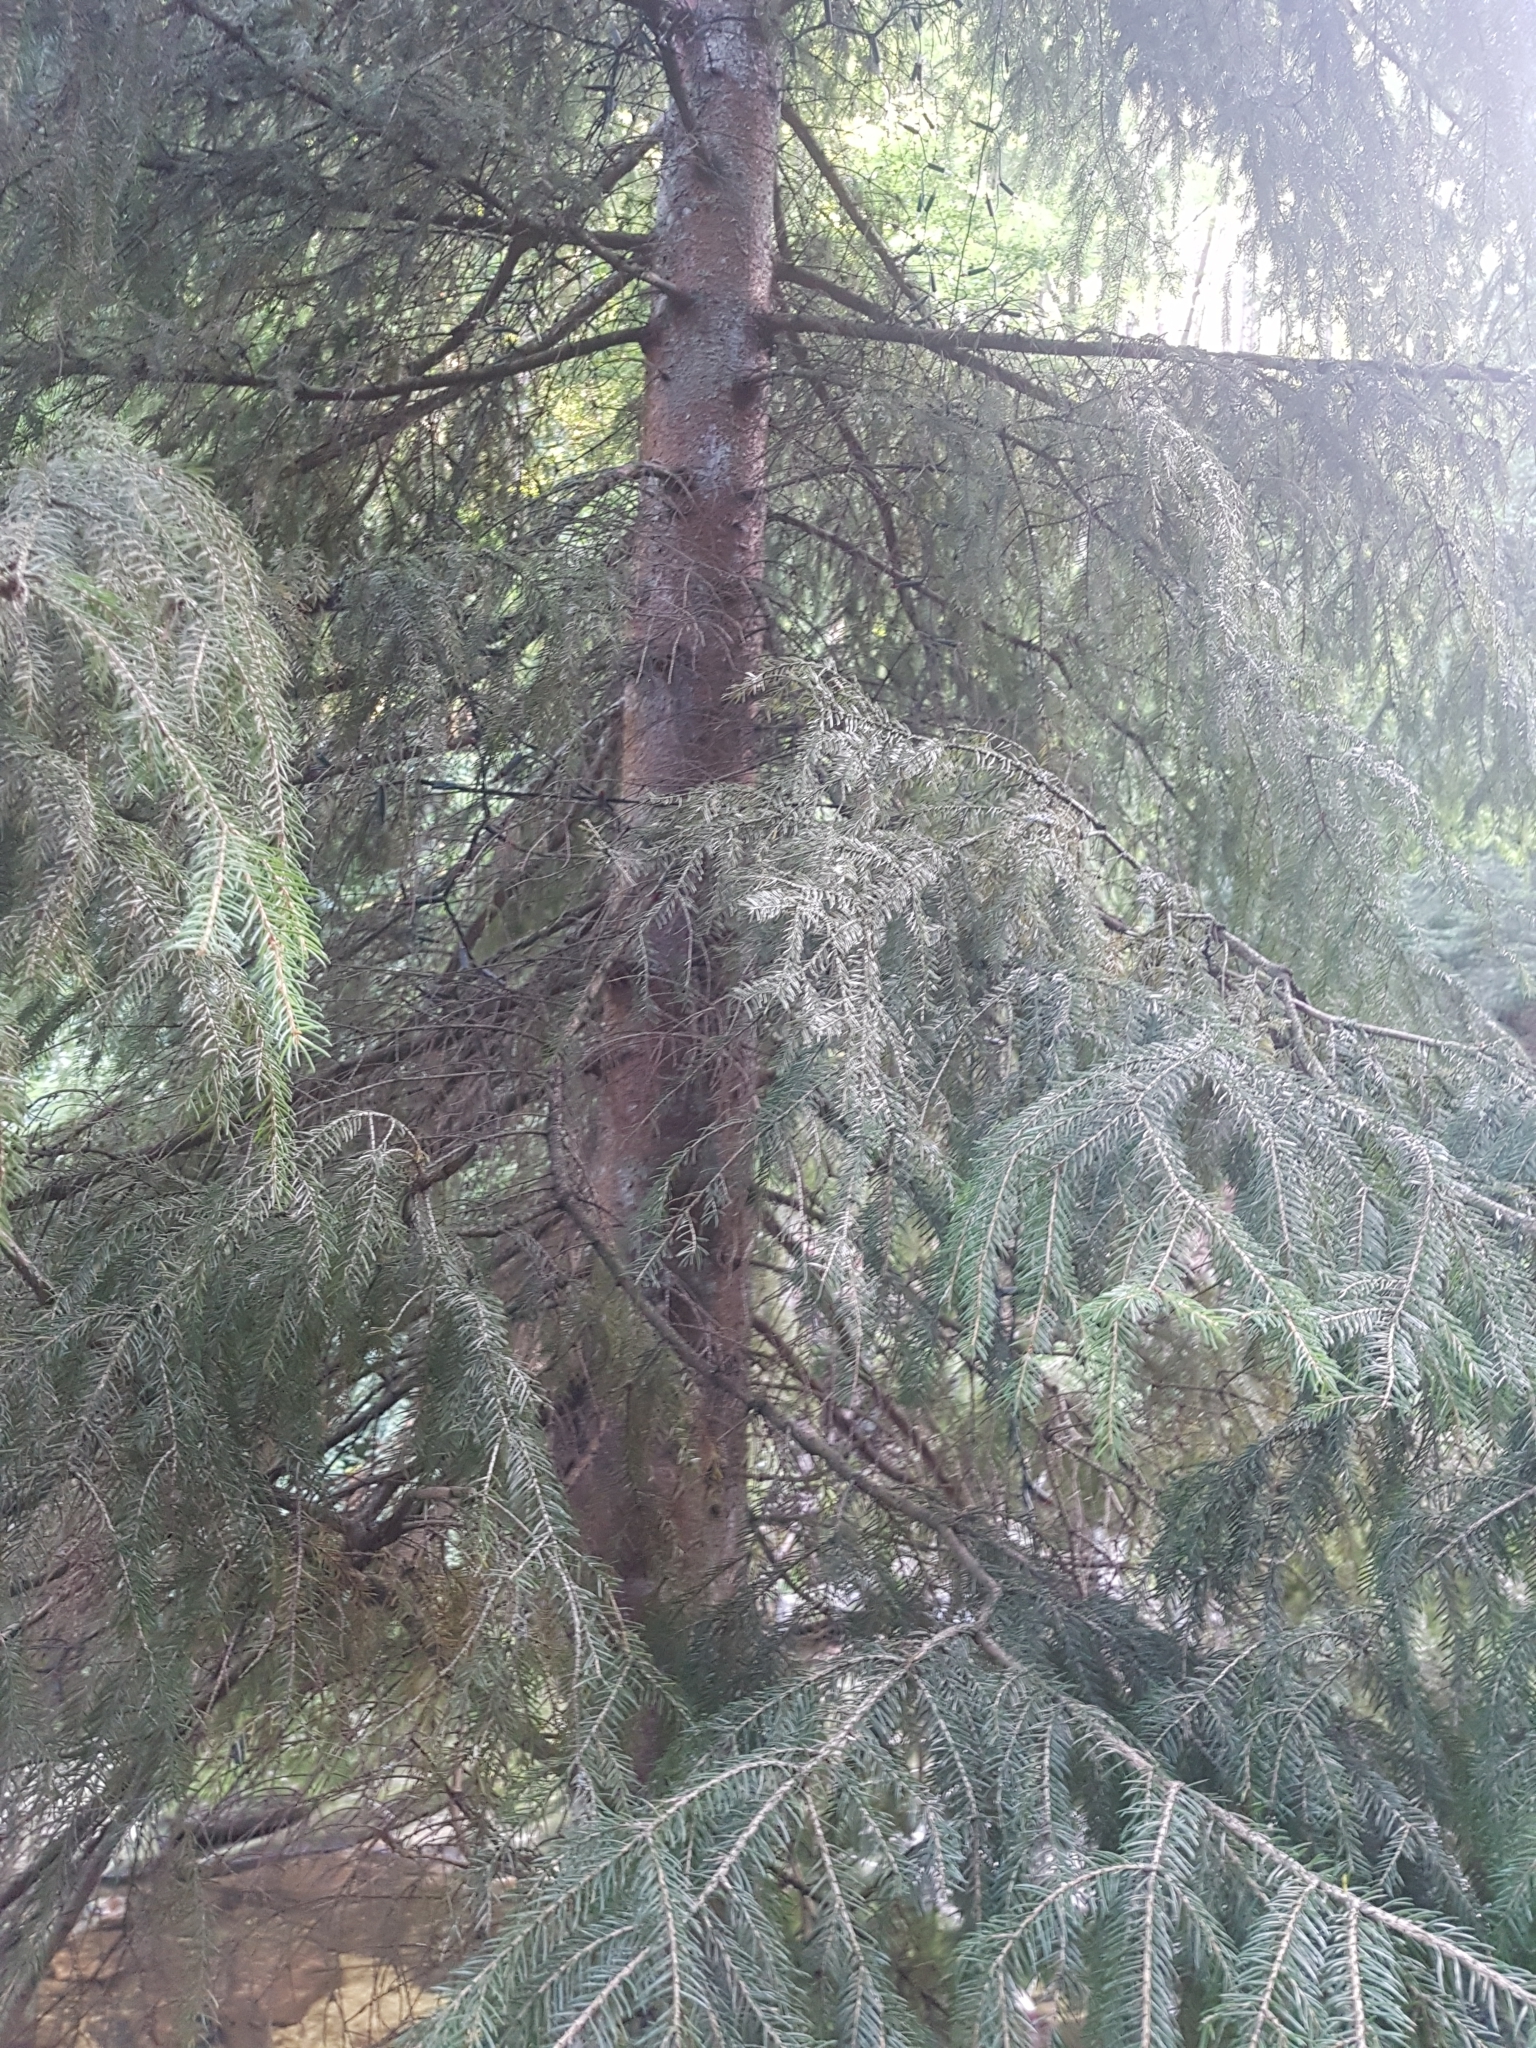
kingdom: Plantae
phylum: Tracheophyta
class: Pinopsida
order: Pinales
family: Pinaceae
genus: Picea
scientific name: Picea abies
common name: Norway spruce
